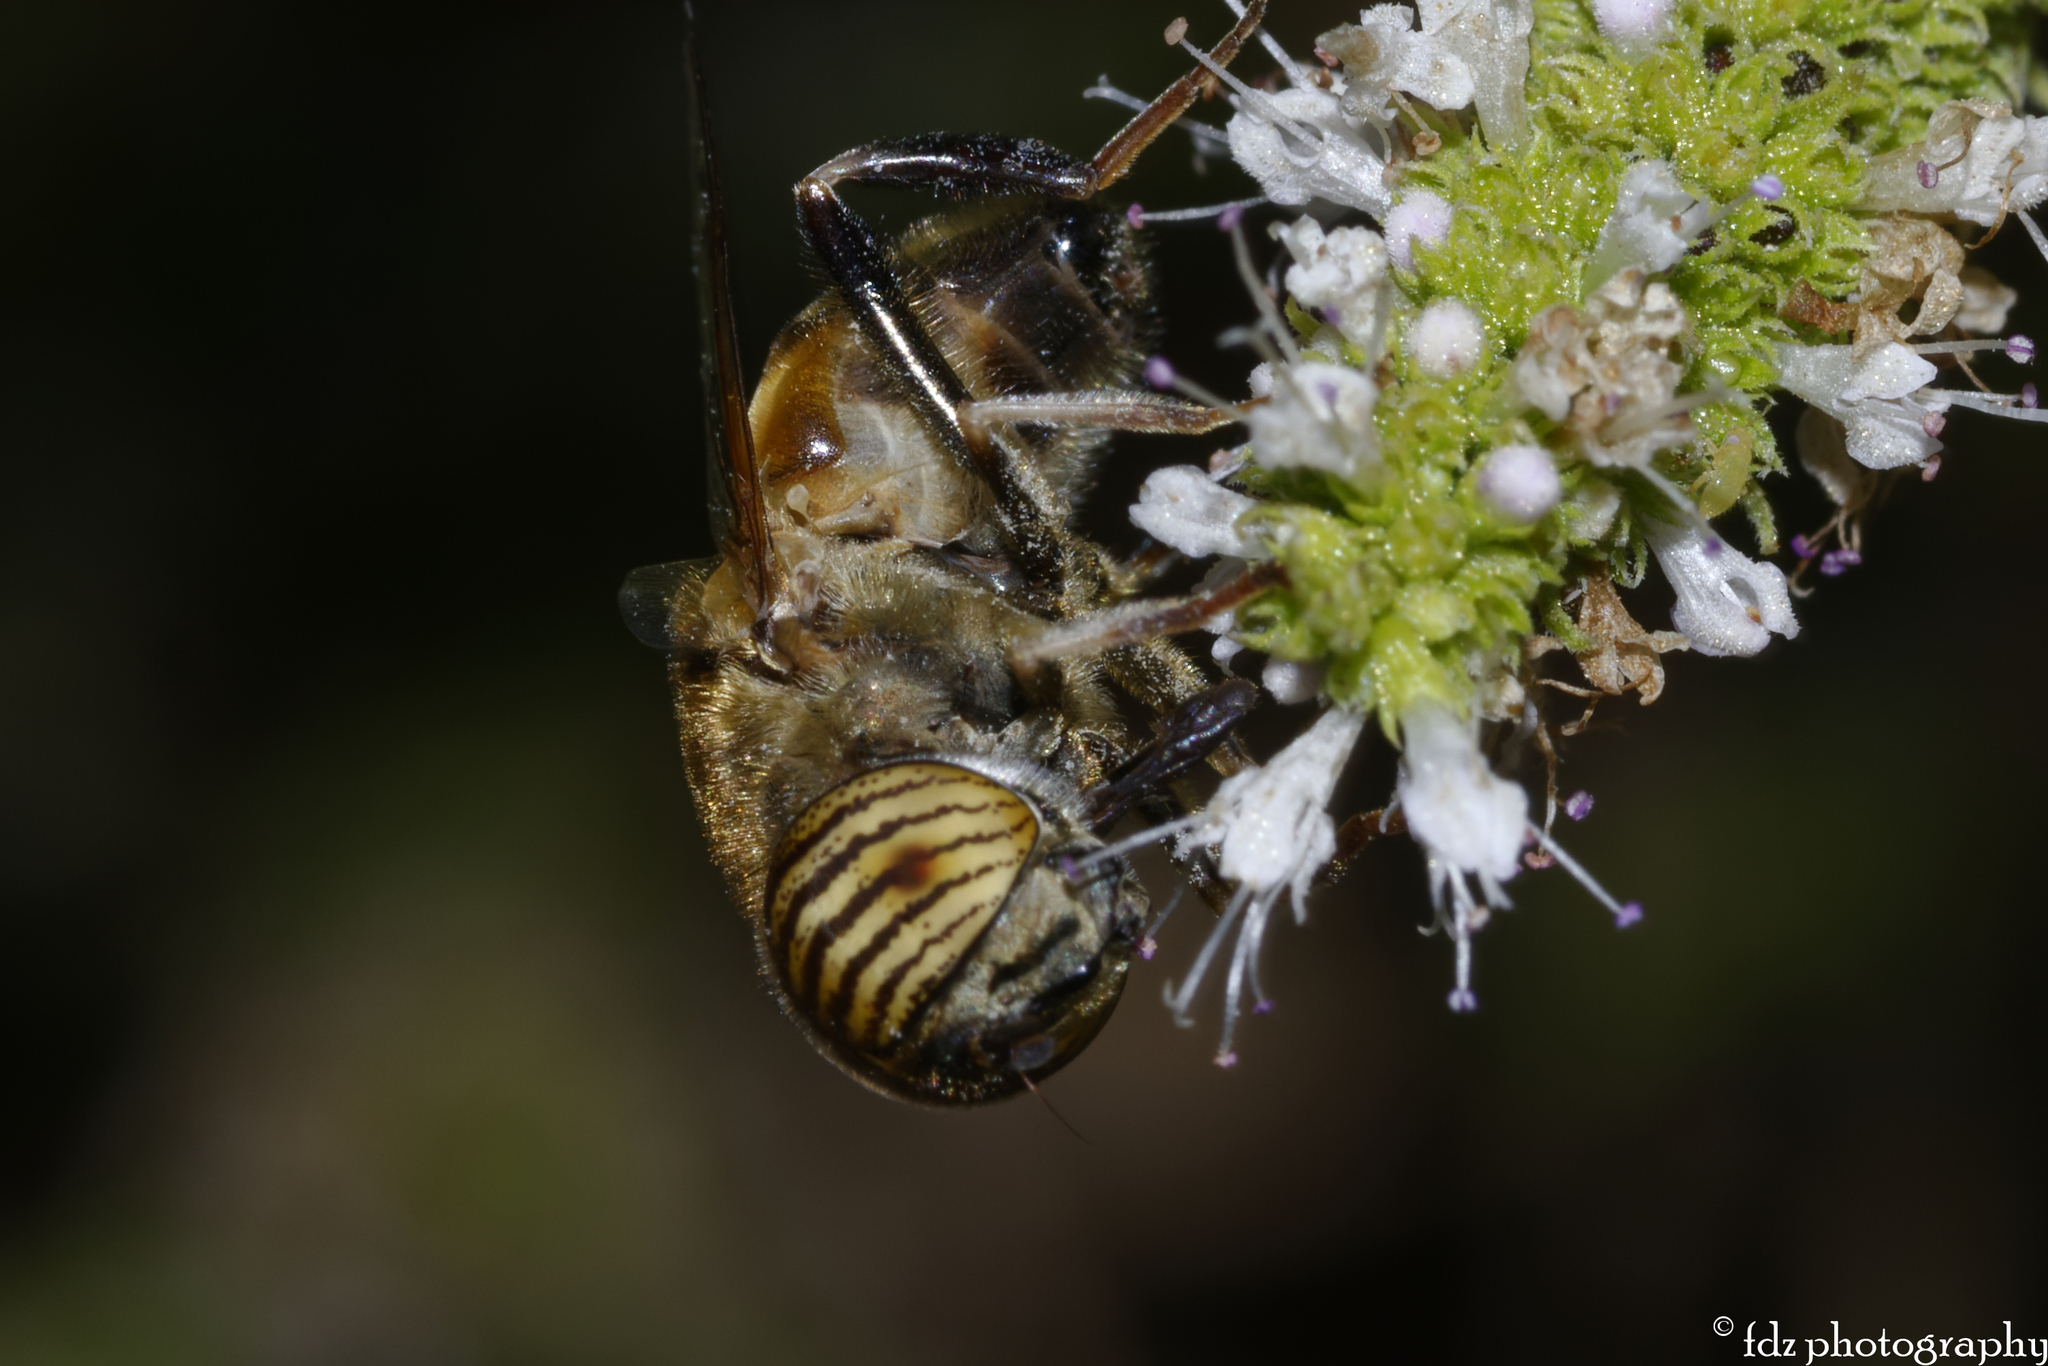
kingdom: Animalia
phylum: Arthropoda
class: Insecta
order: Diptera
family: Syrphidae
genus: Eristalinus
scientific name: Eristalinus taeniops
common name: Syrphid fly
